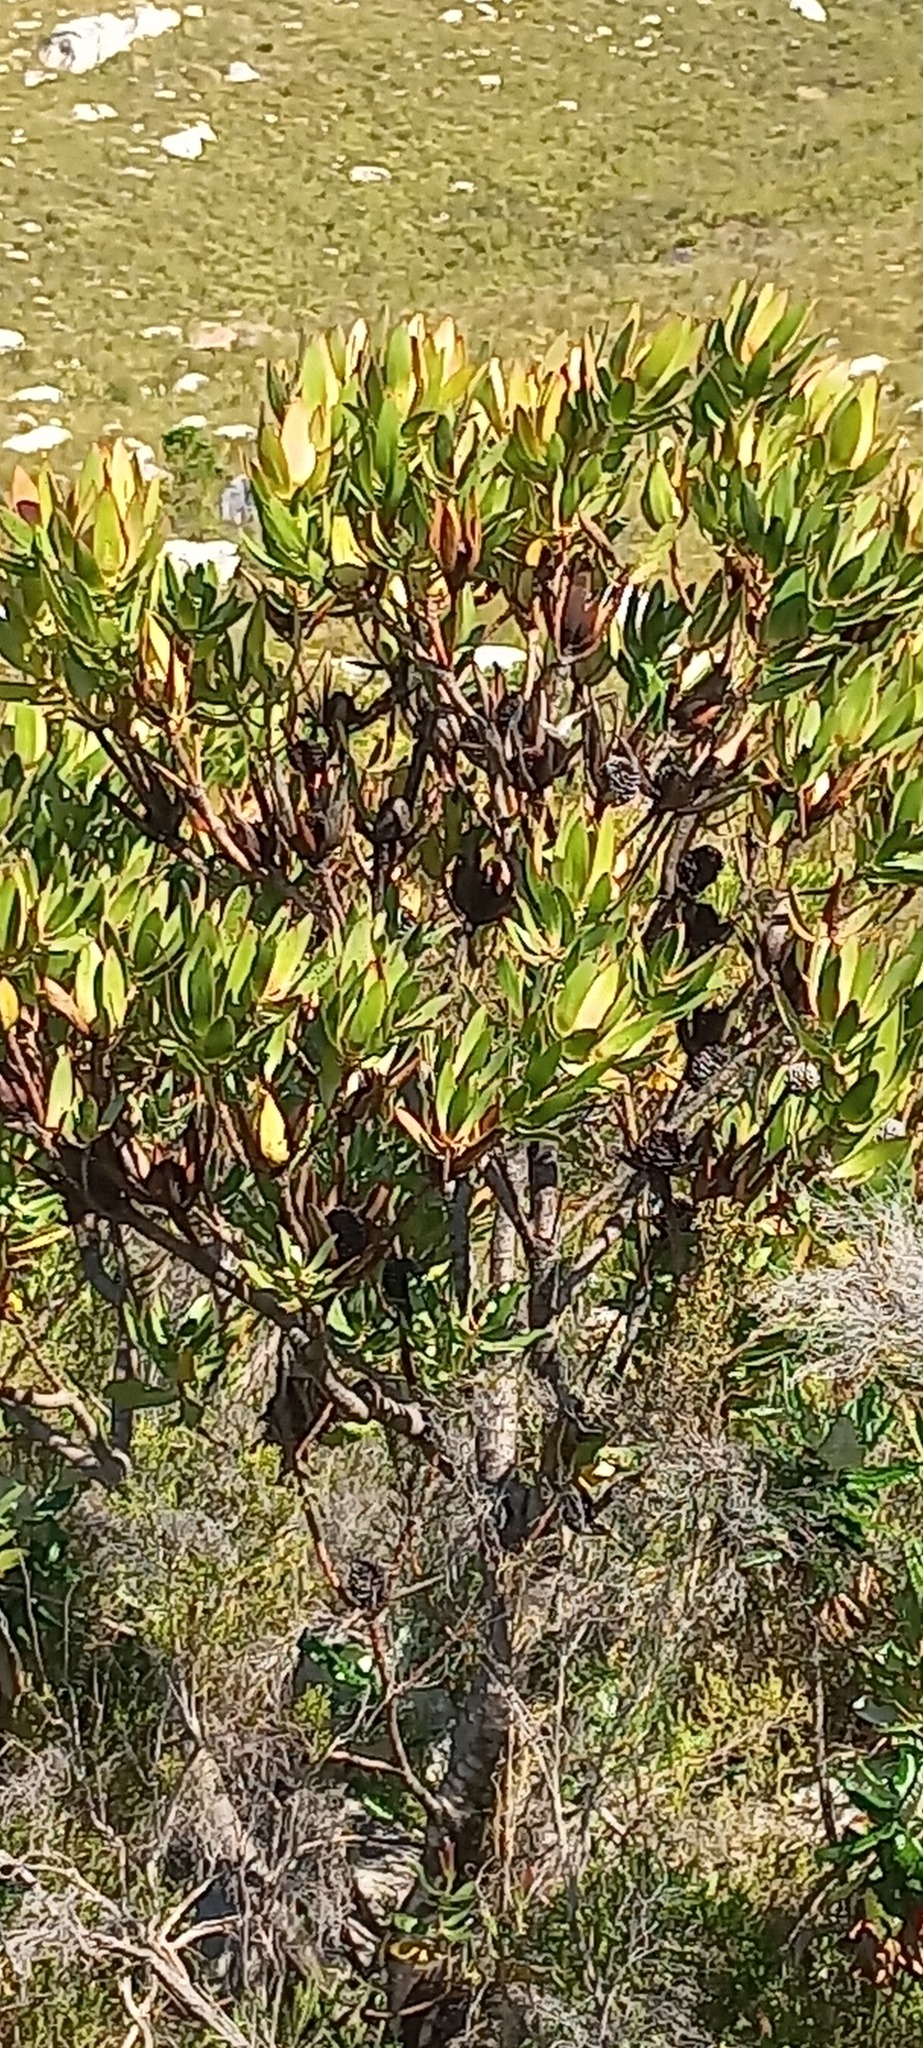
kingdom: Plantae
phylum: Tracheophyta
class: Magnoliopsida
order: Proteales
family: Proteaceae
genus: Protea
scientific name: Protea lepidocarpodendron
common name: Black-bearded protea
